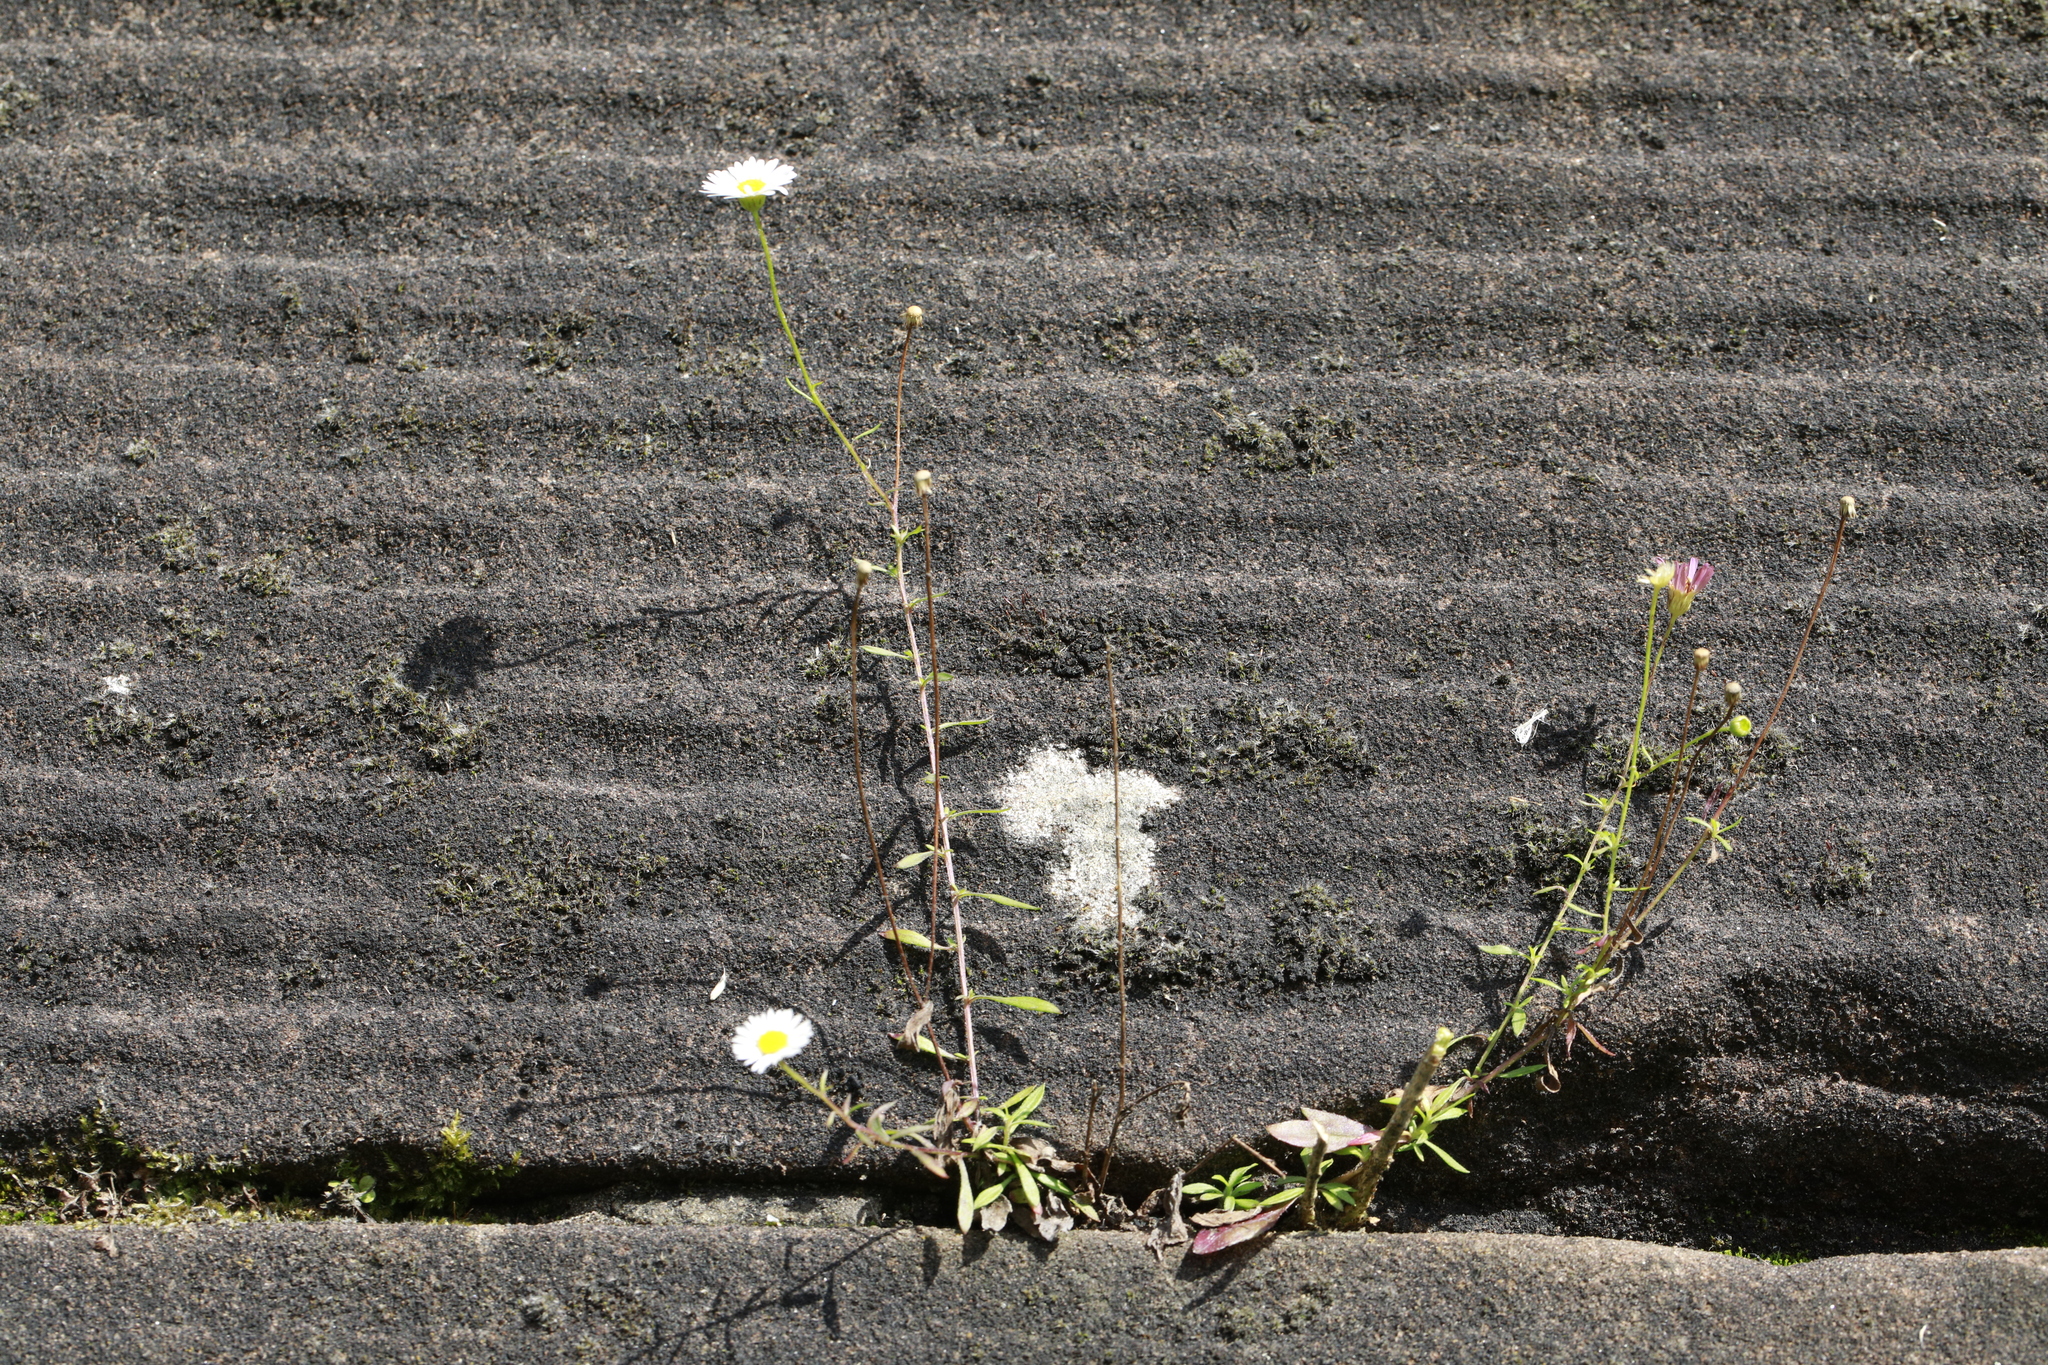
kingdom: Plantae
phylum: Tracheophyta
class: Magnoliopsida
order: Asterales
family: Asteraceae
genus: Erigeron
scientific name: Erigeron karvinskianus
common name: Mexican fleabane
